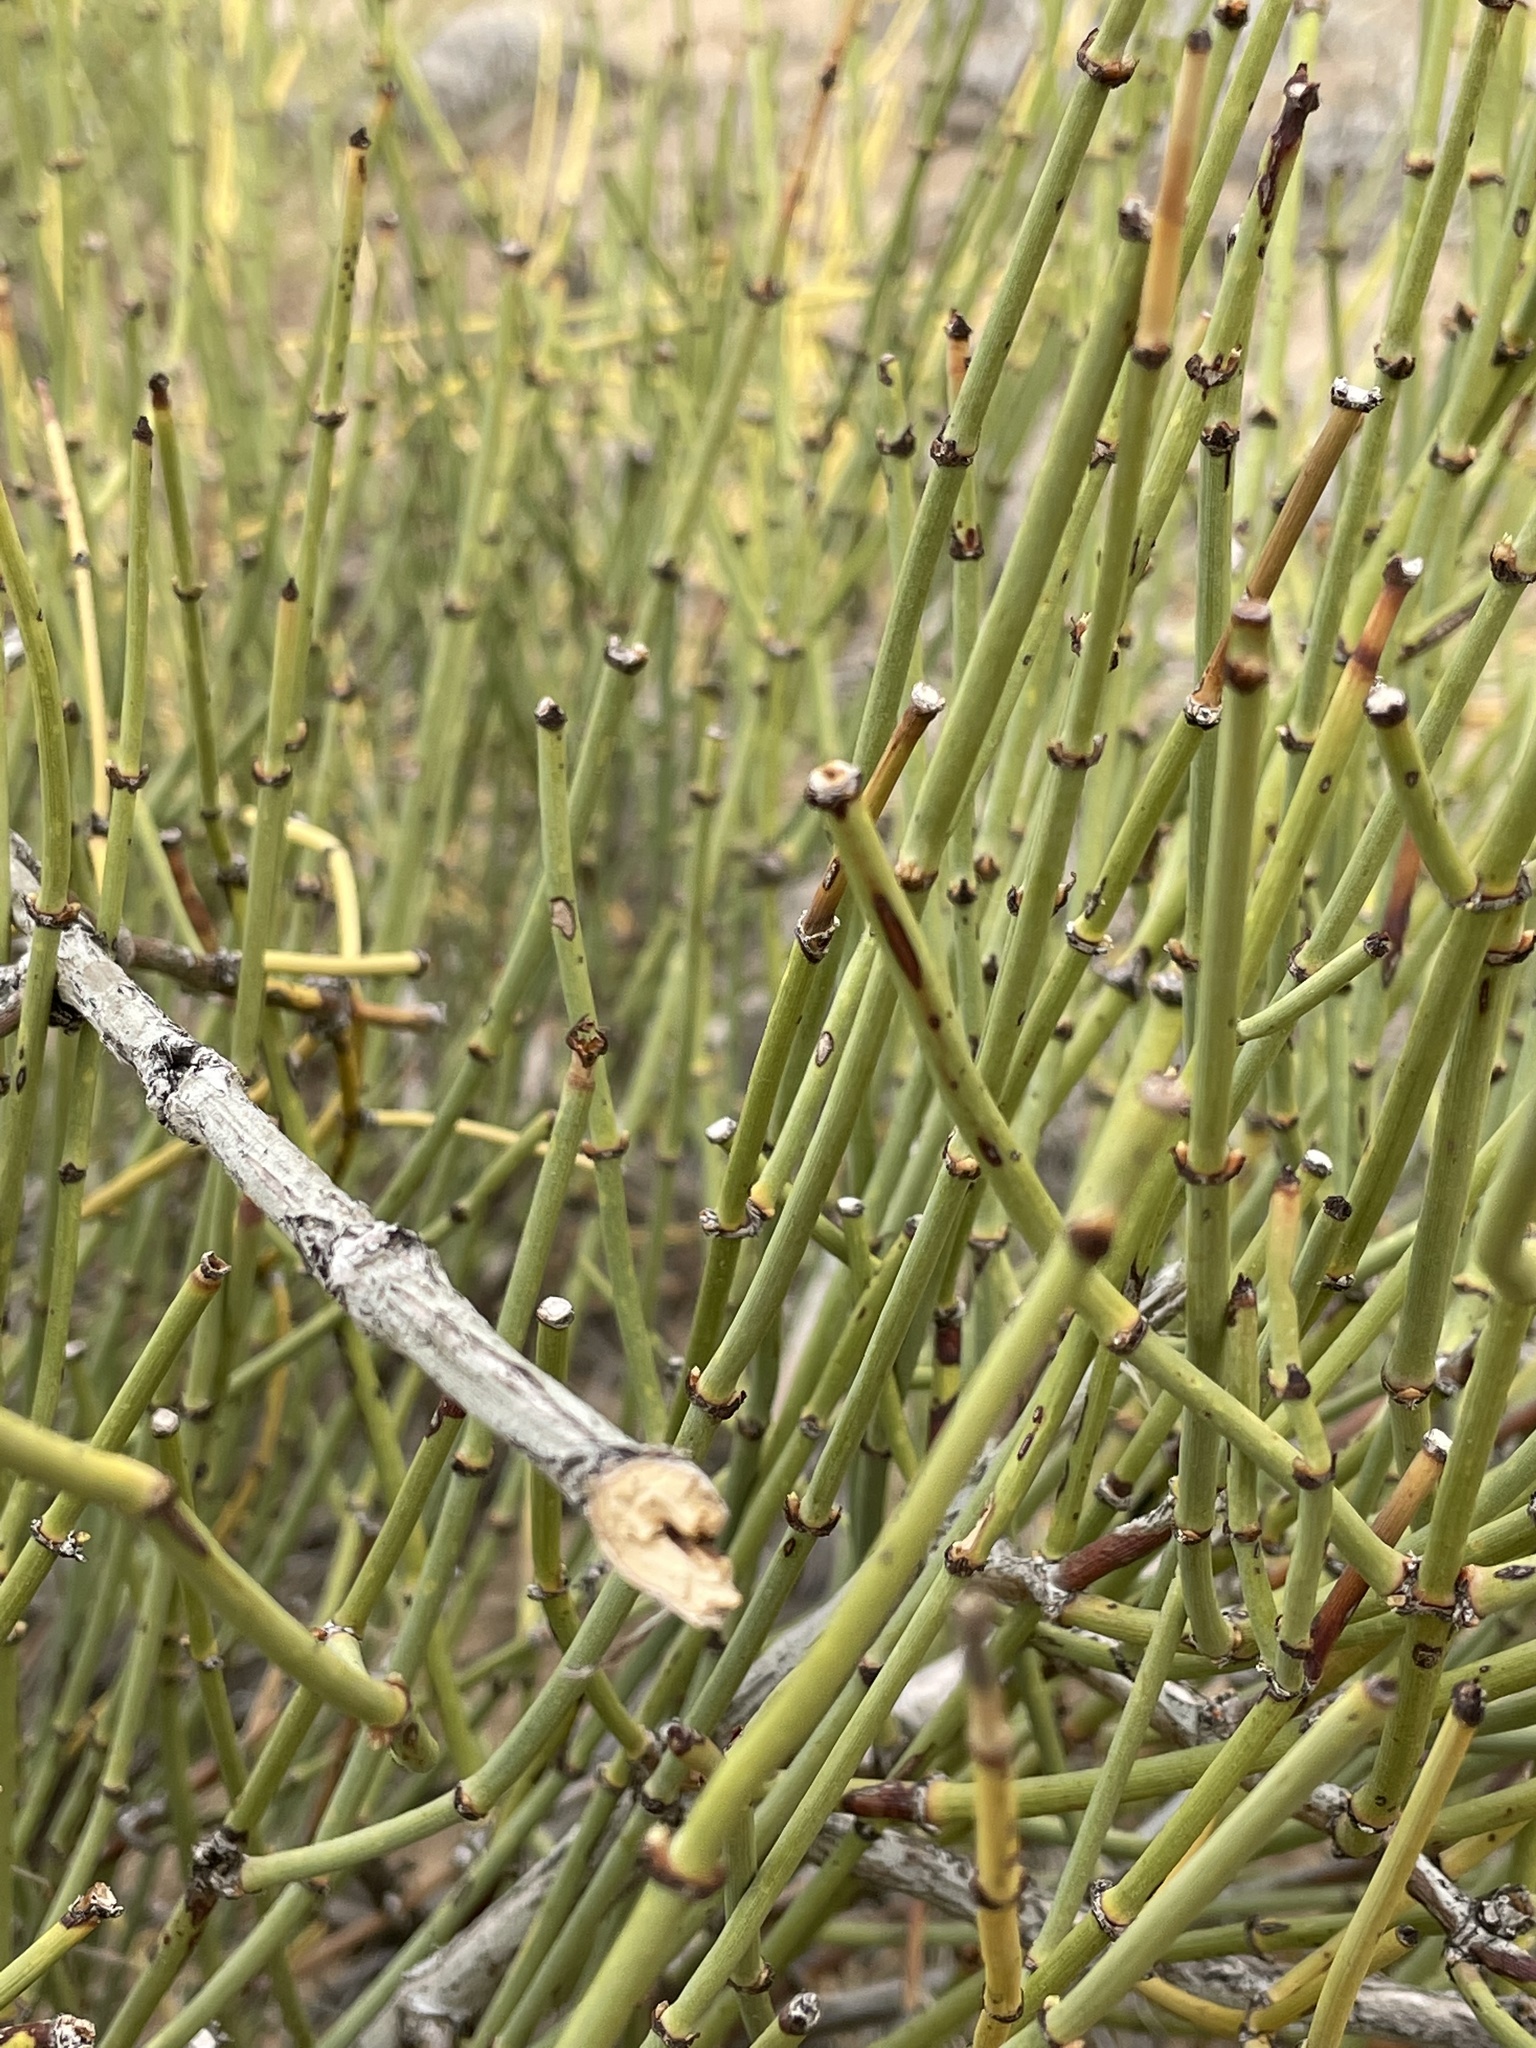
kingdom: Plantae
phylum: Tracheophyta
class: Gnetopsida
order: Ephedrales
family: Ephedraceae
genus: Ephedra
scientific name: Ephedra viridis
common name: Green ephedra
